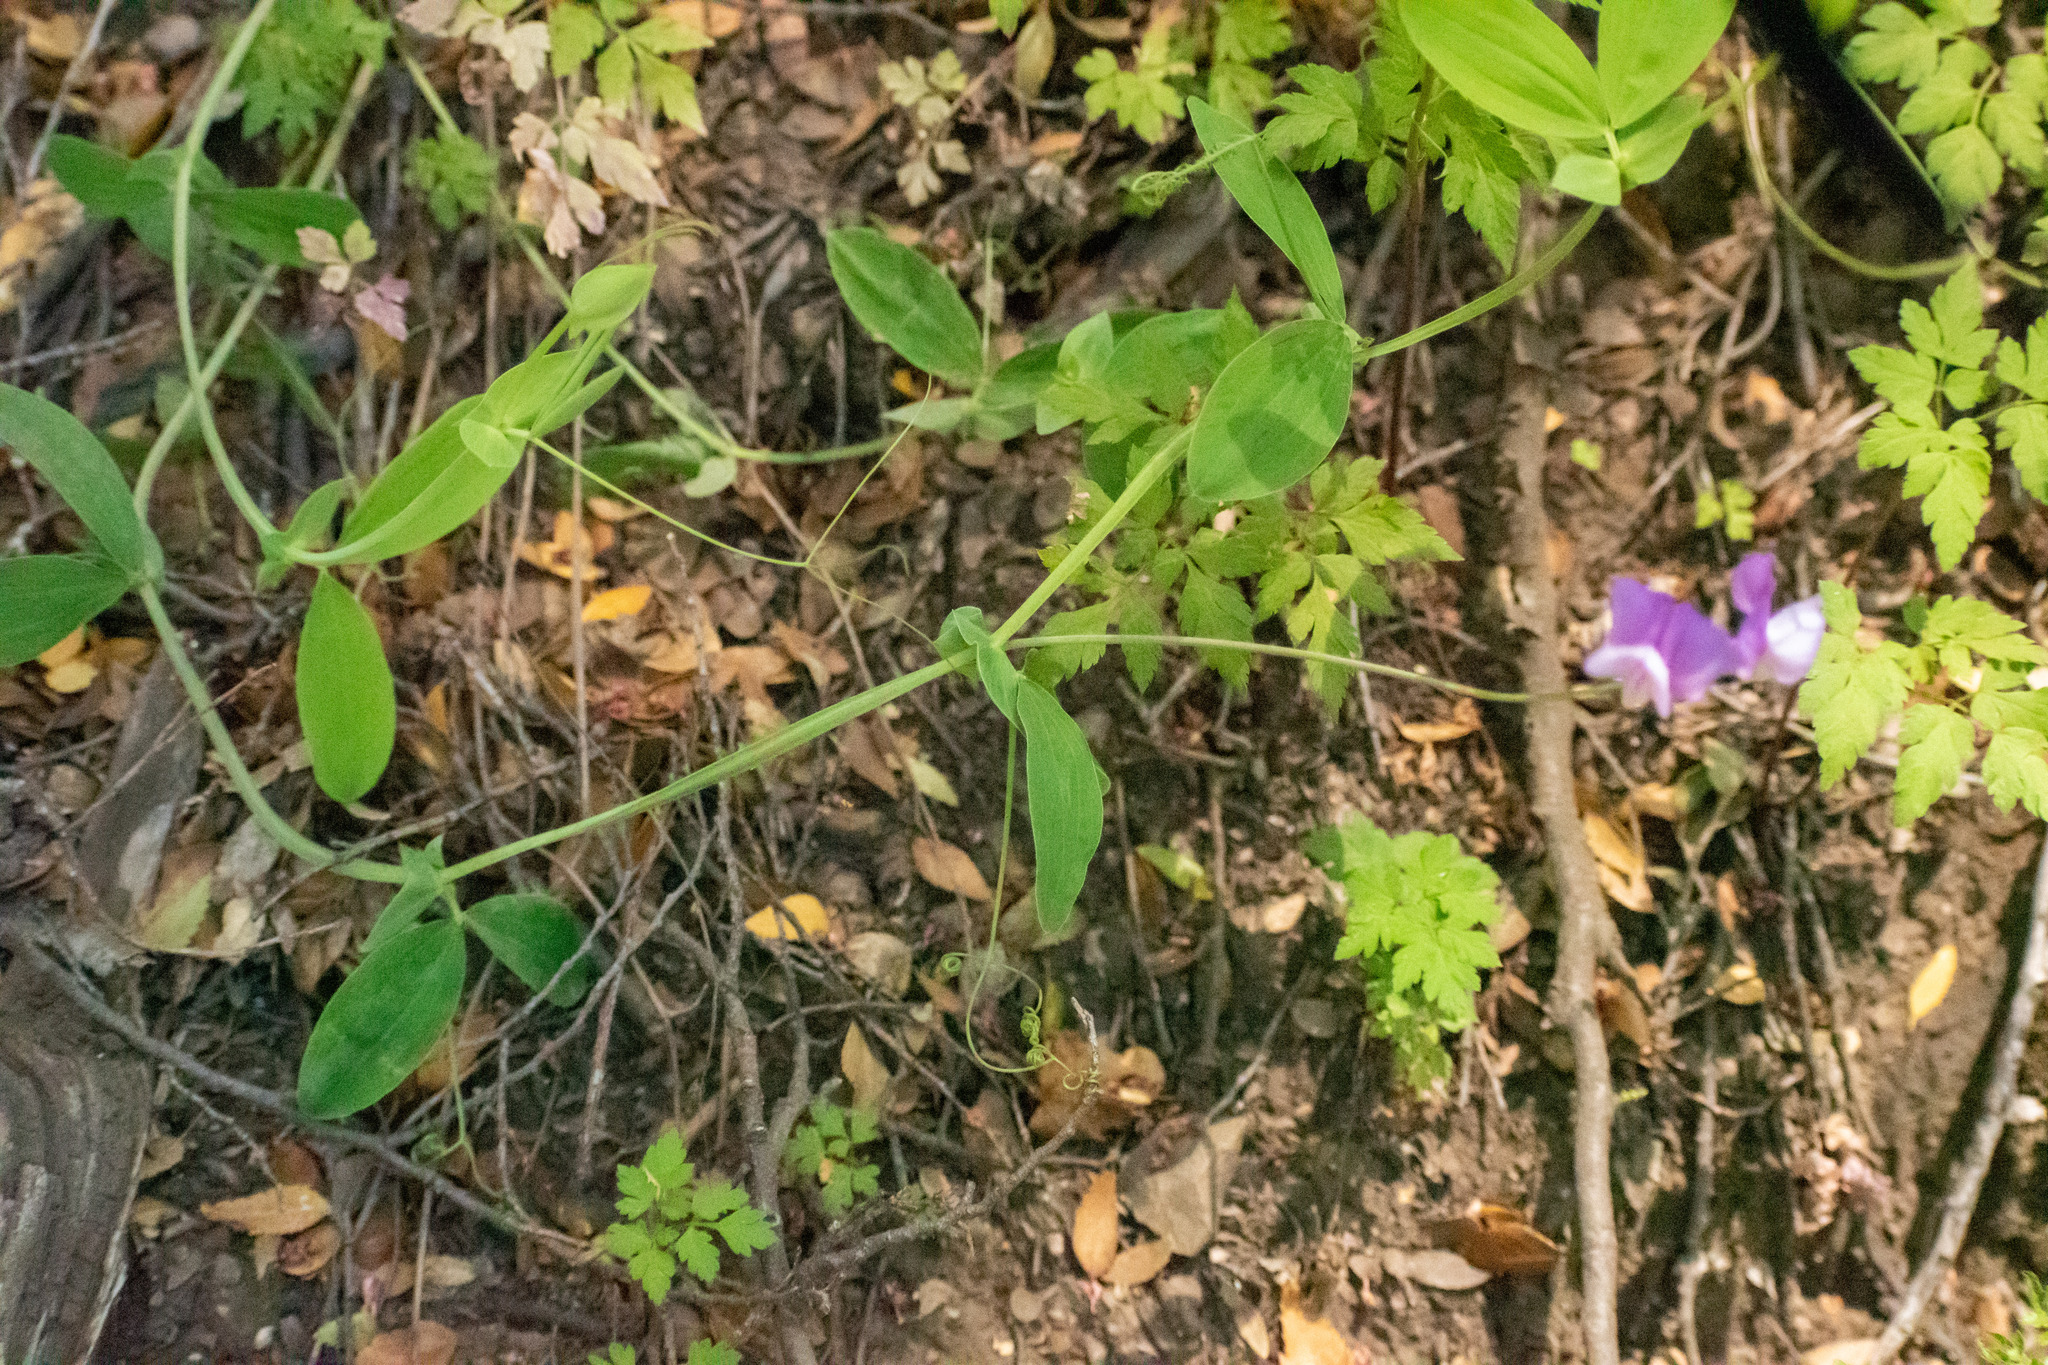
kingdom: Plantae
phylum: Tracheophyta
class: Magnoliopsida
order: Fabales
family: Fabaceae
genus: Lathyrus
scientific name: Lathyrus magellanicus
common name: Lord anson's pea
